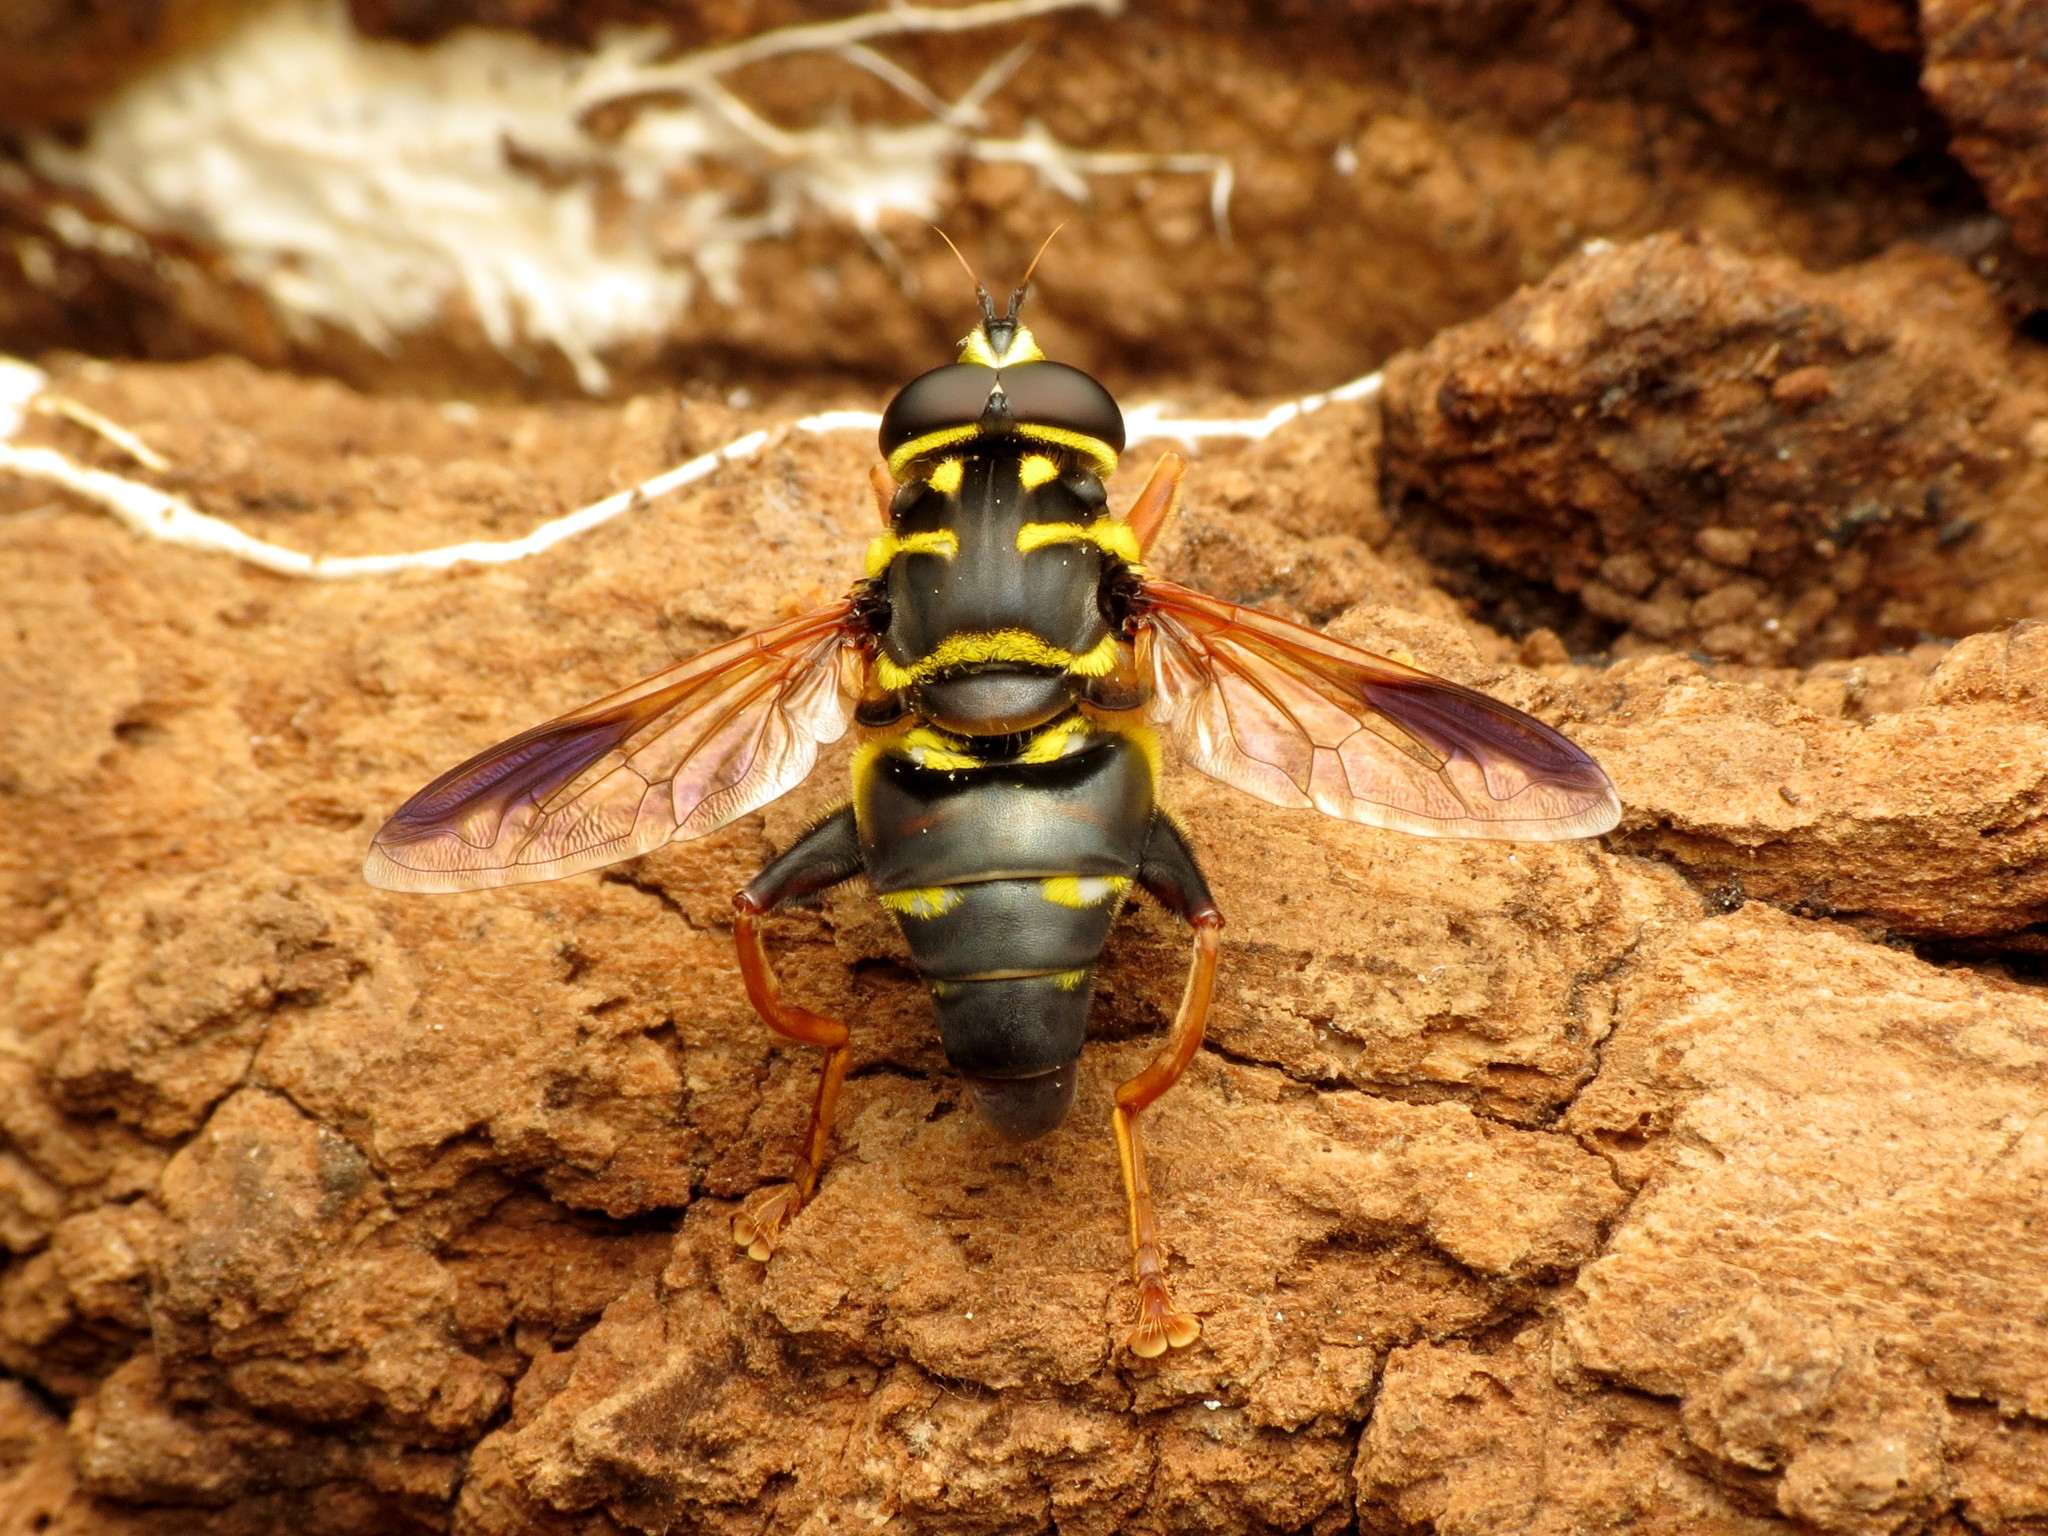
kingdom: Animalia
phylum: Arthropoda
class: Insecta
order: Diptera
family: Syrphidae
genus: Meromacrus
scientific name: Meromacrus acutus
